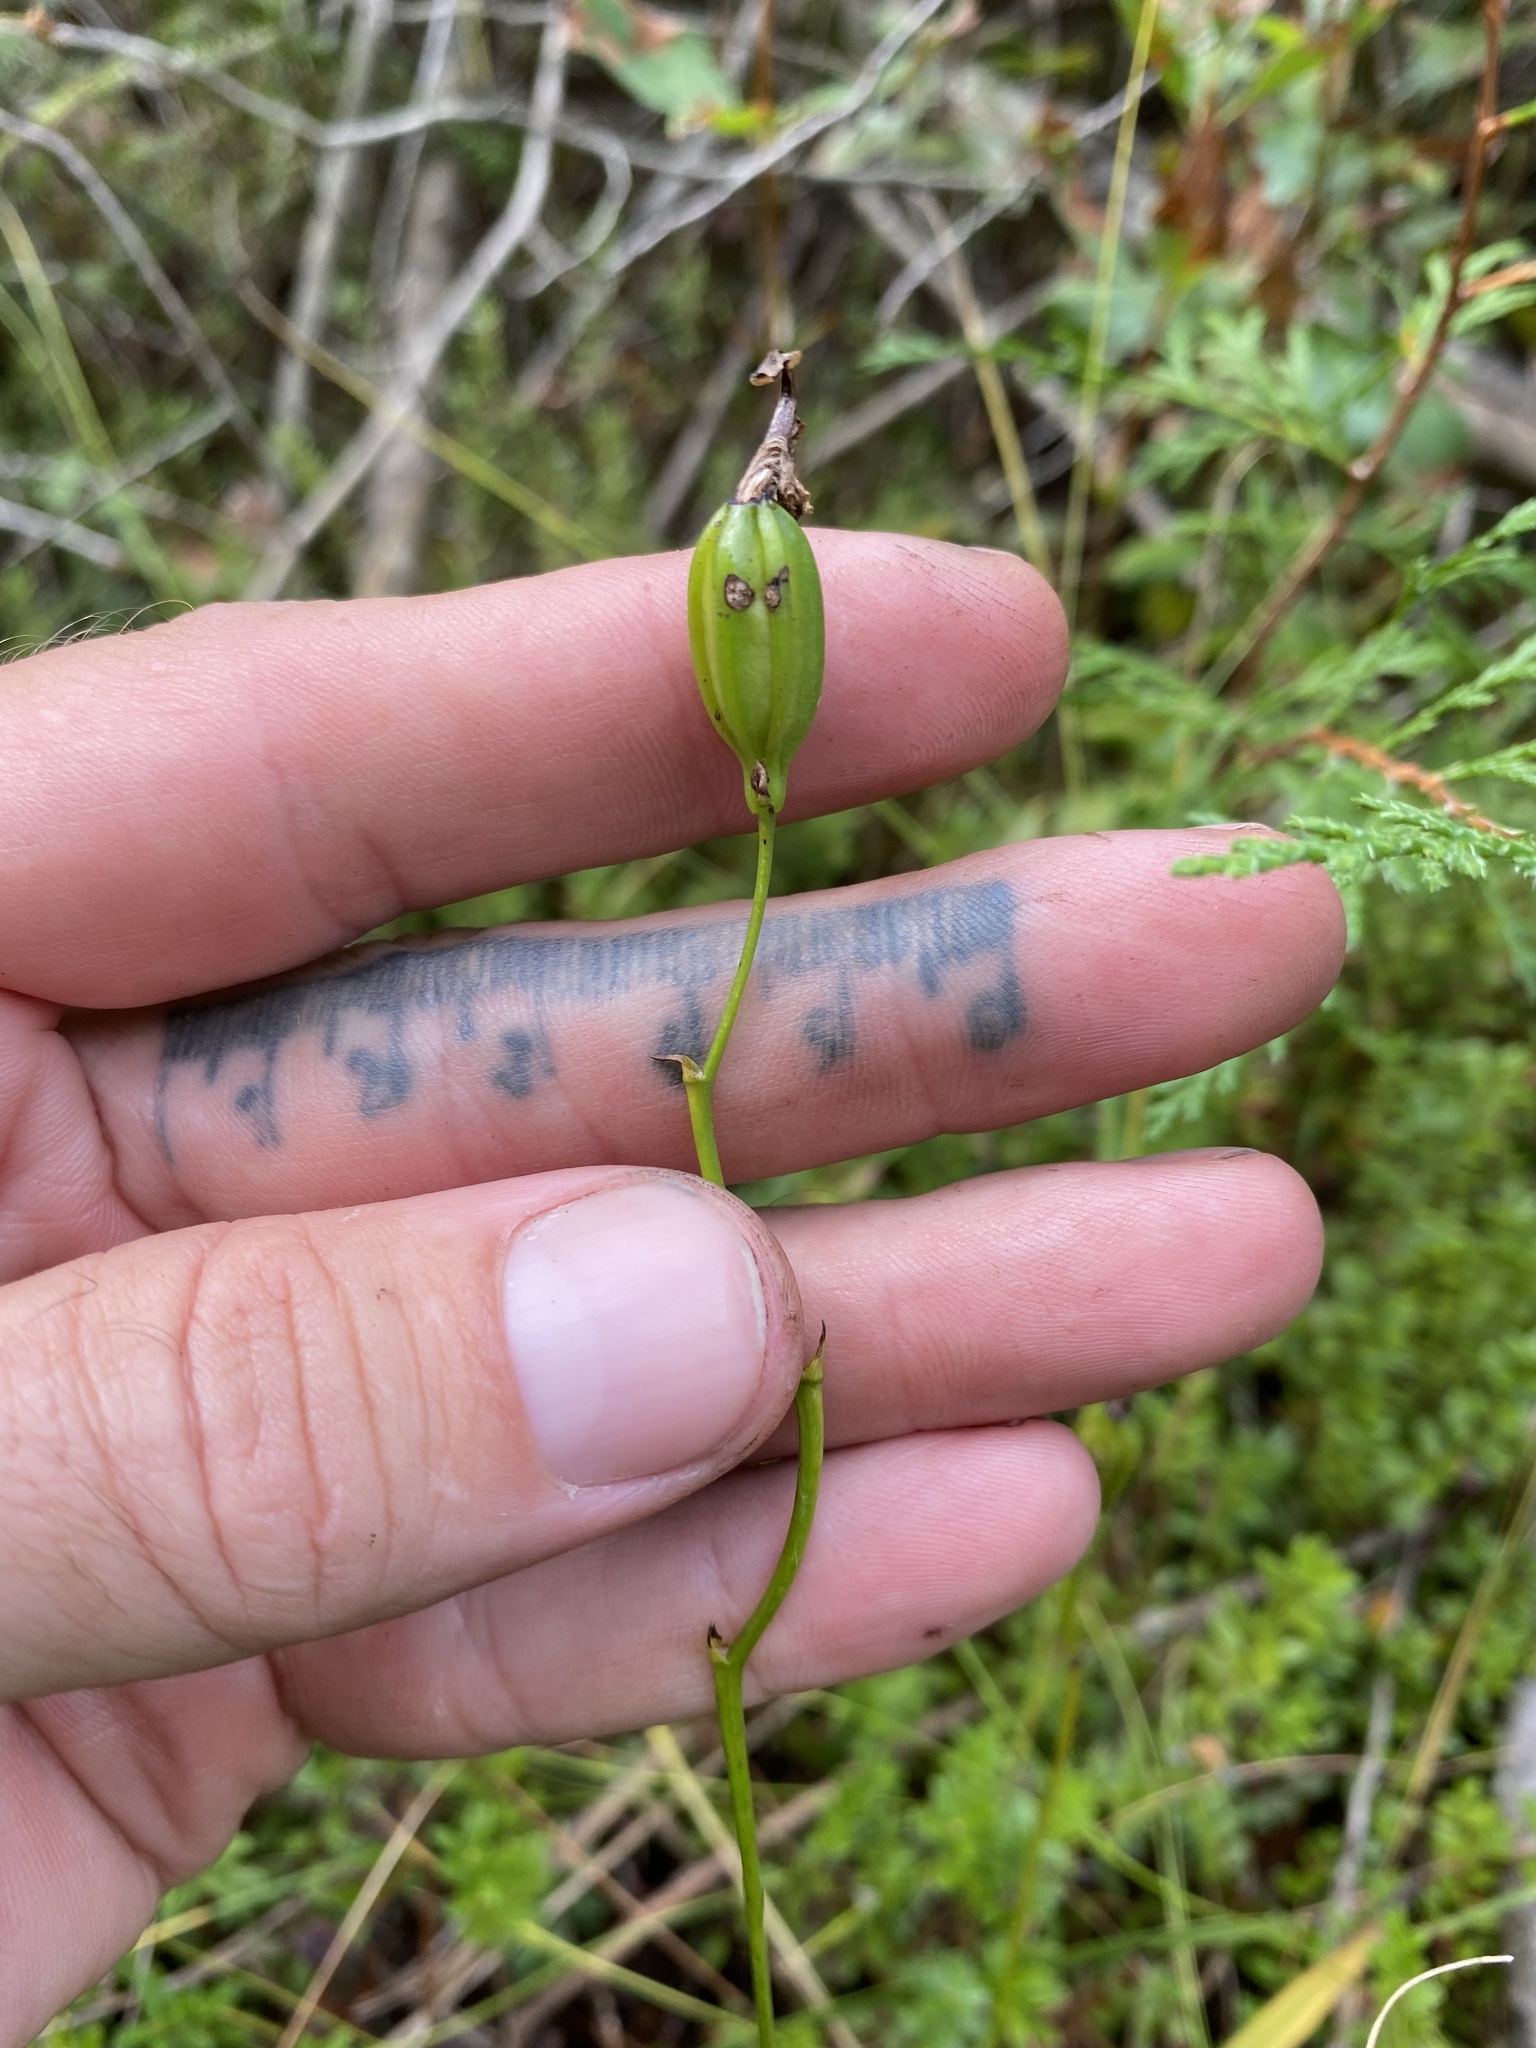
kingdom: Plantae
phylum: Tracheophyta
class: Liliopsida
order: Asparagales
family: Orchidaceae
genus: Calopogon
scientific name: Calopogon tuberosus
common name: Grass-pink
